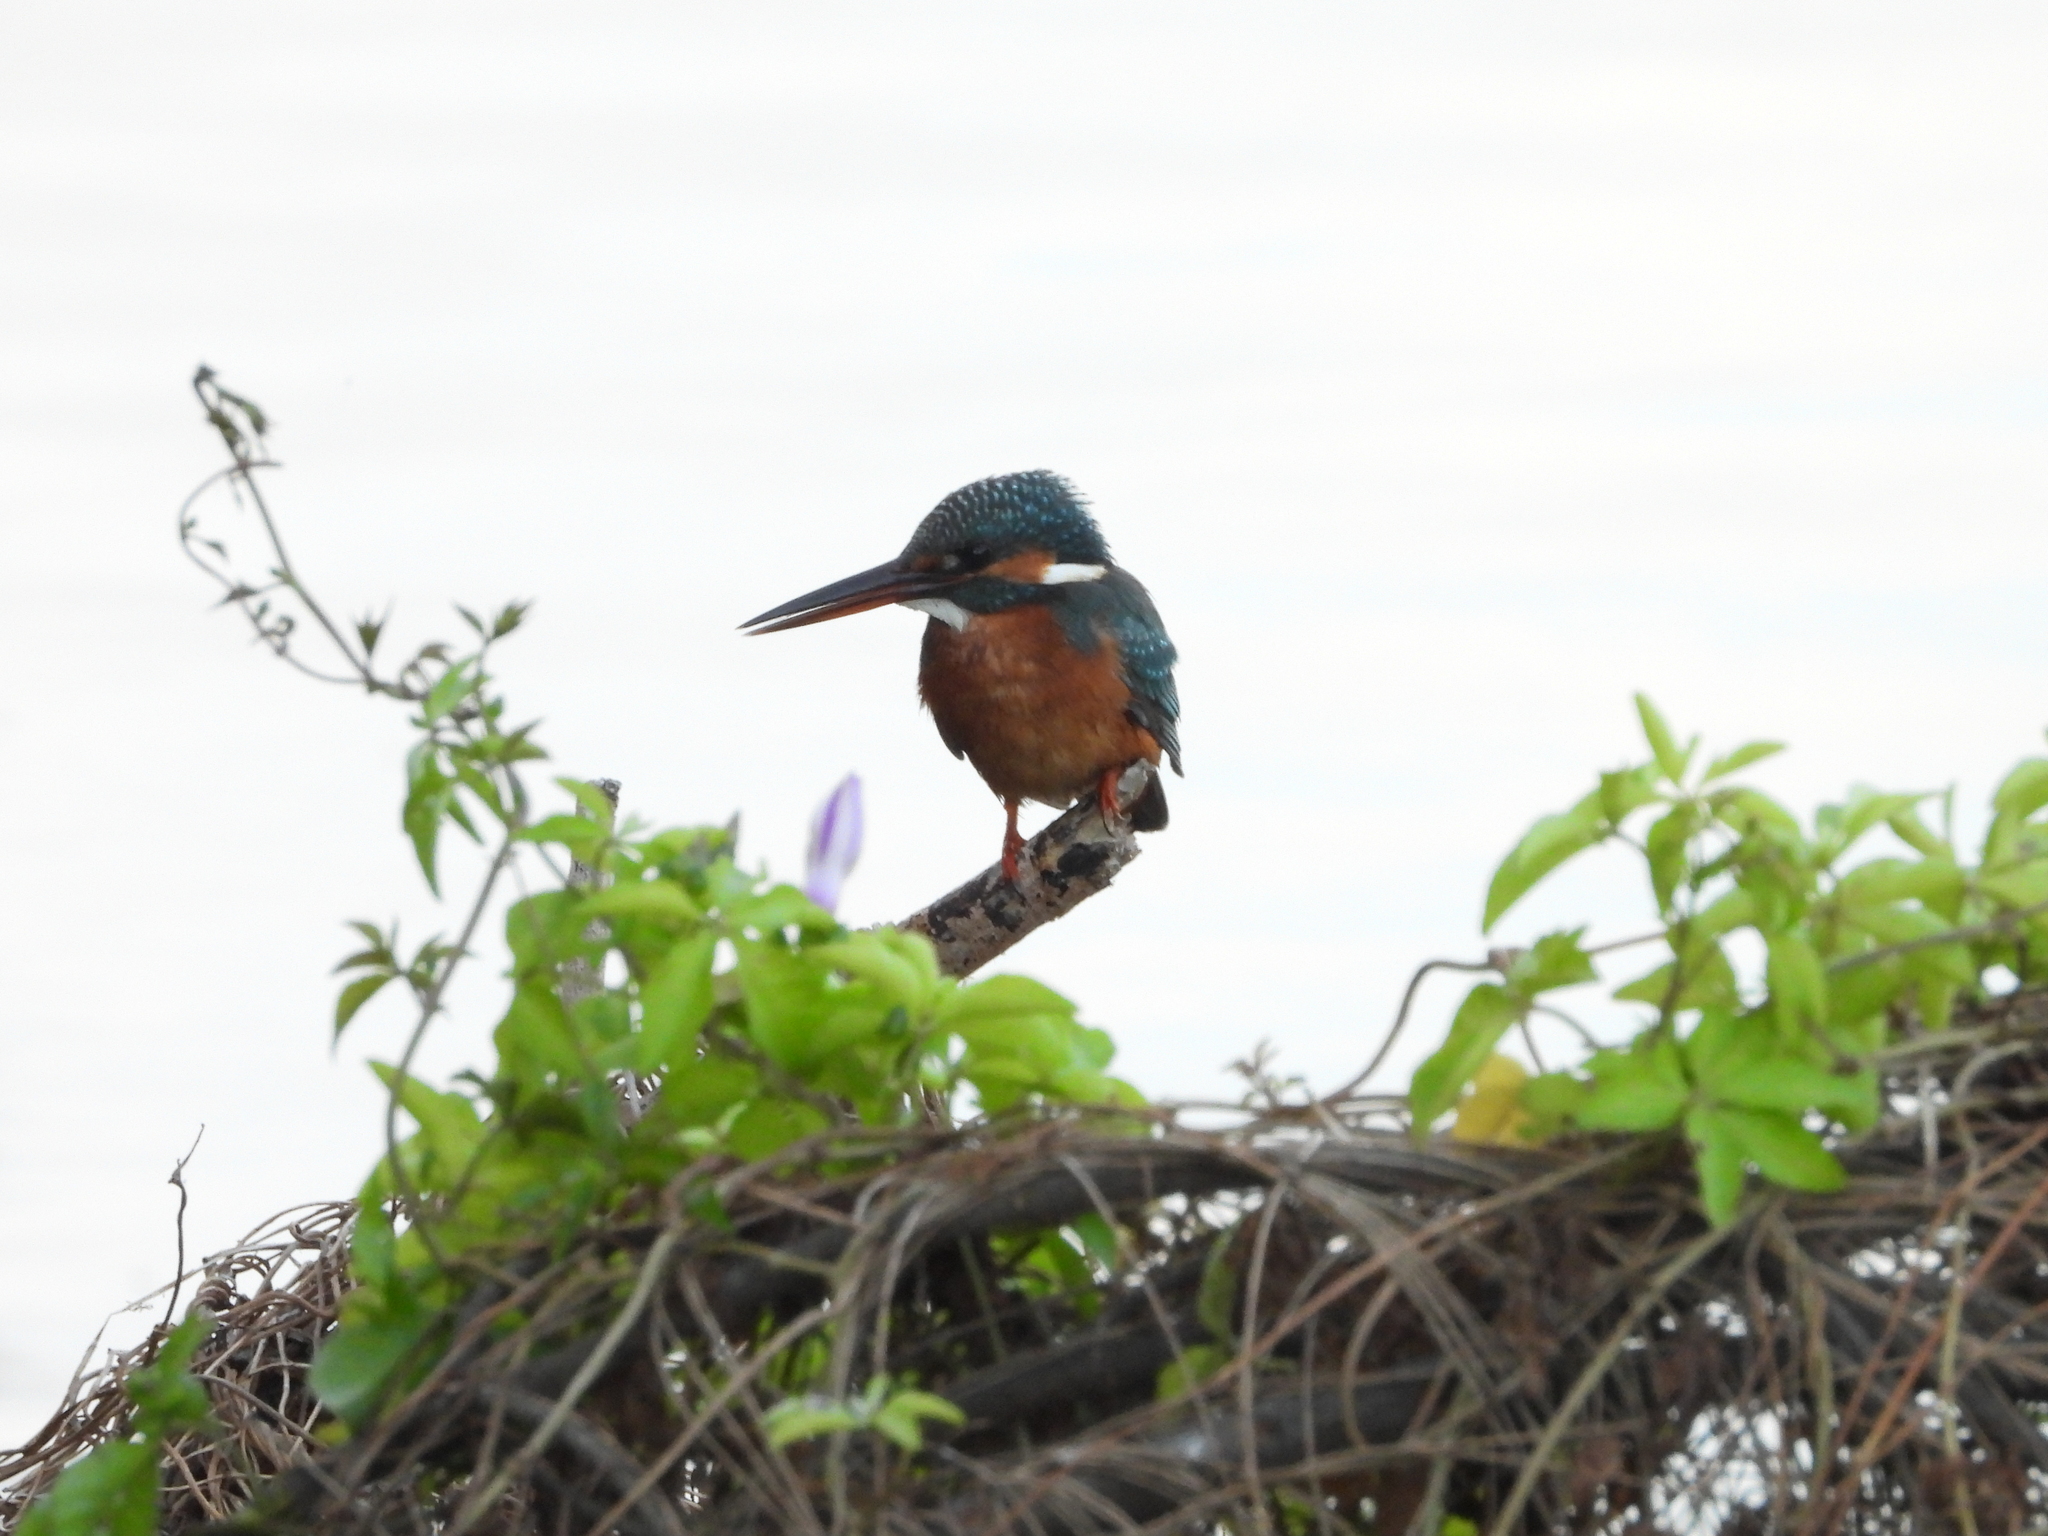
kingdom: Animalia
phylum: Chordata
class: Aves
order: Coraciiformes
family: Alcedinidae
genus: Alcedo
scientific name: Alcedo atthis
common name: Common kingfisher
